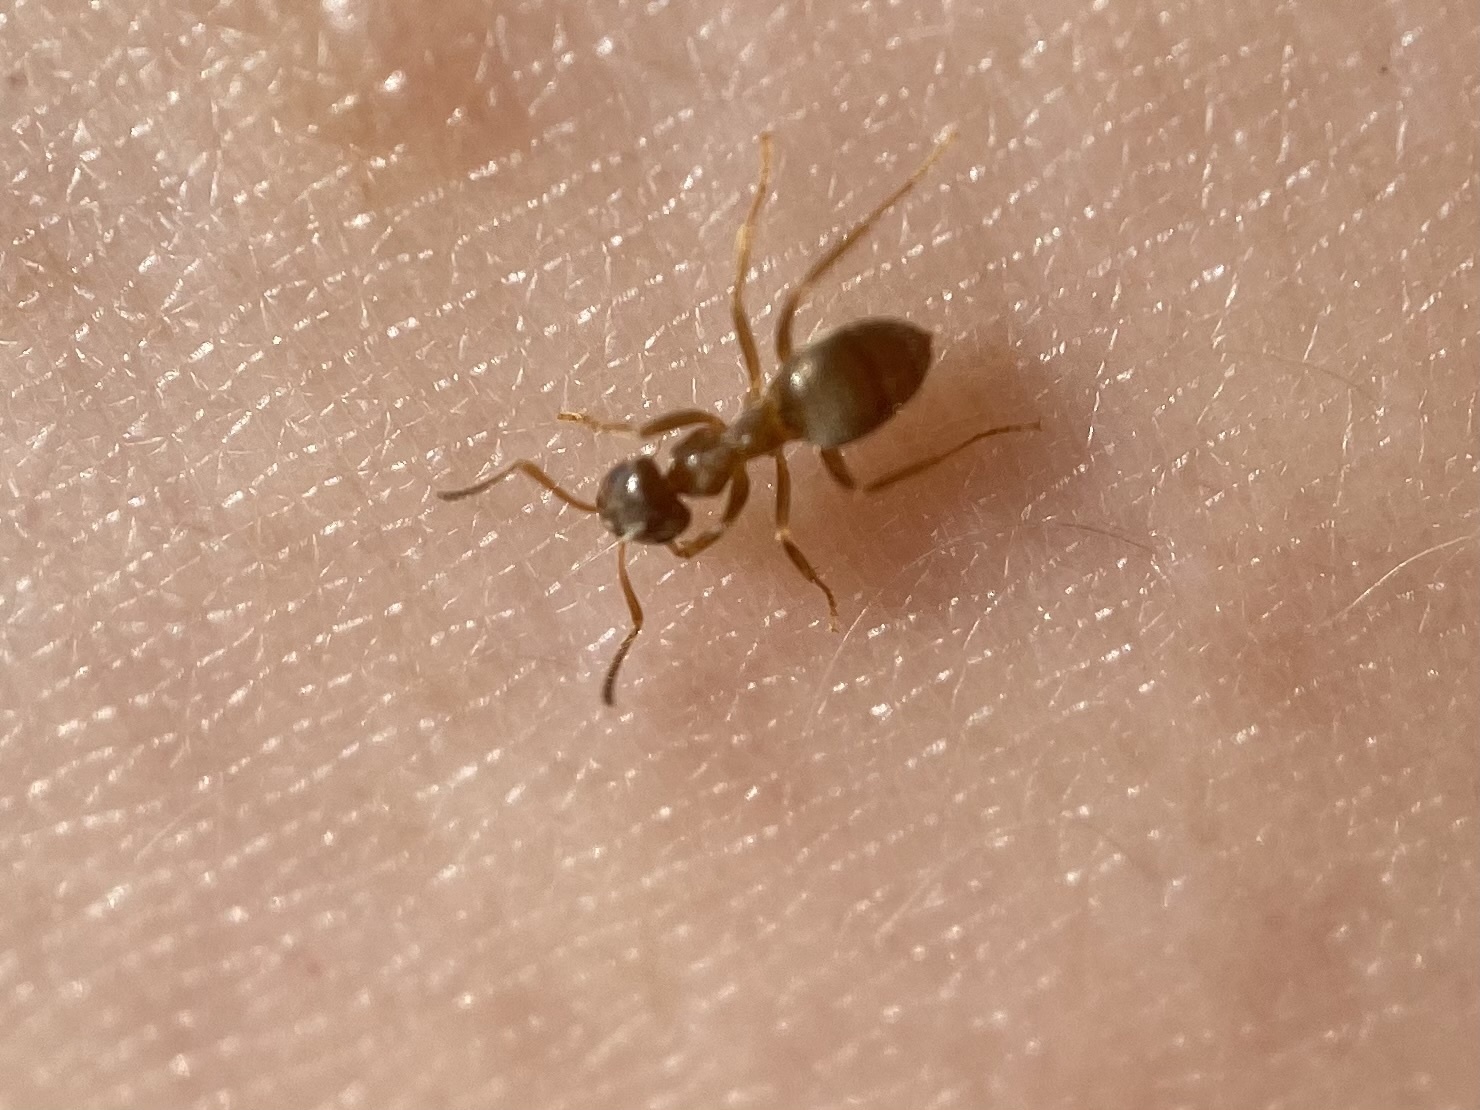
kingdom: Animalia
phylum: Arthropoda
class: Insecta
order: Hymenoptera
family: Formicidae
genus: Lasius
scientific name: Lasius neoniger
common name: Turfgrass ant
